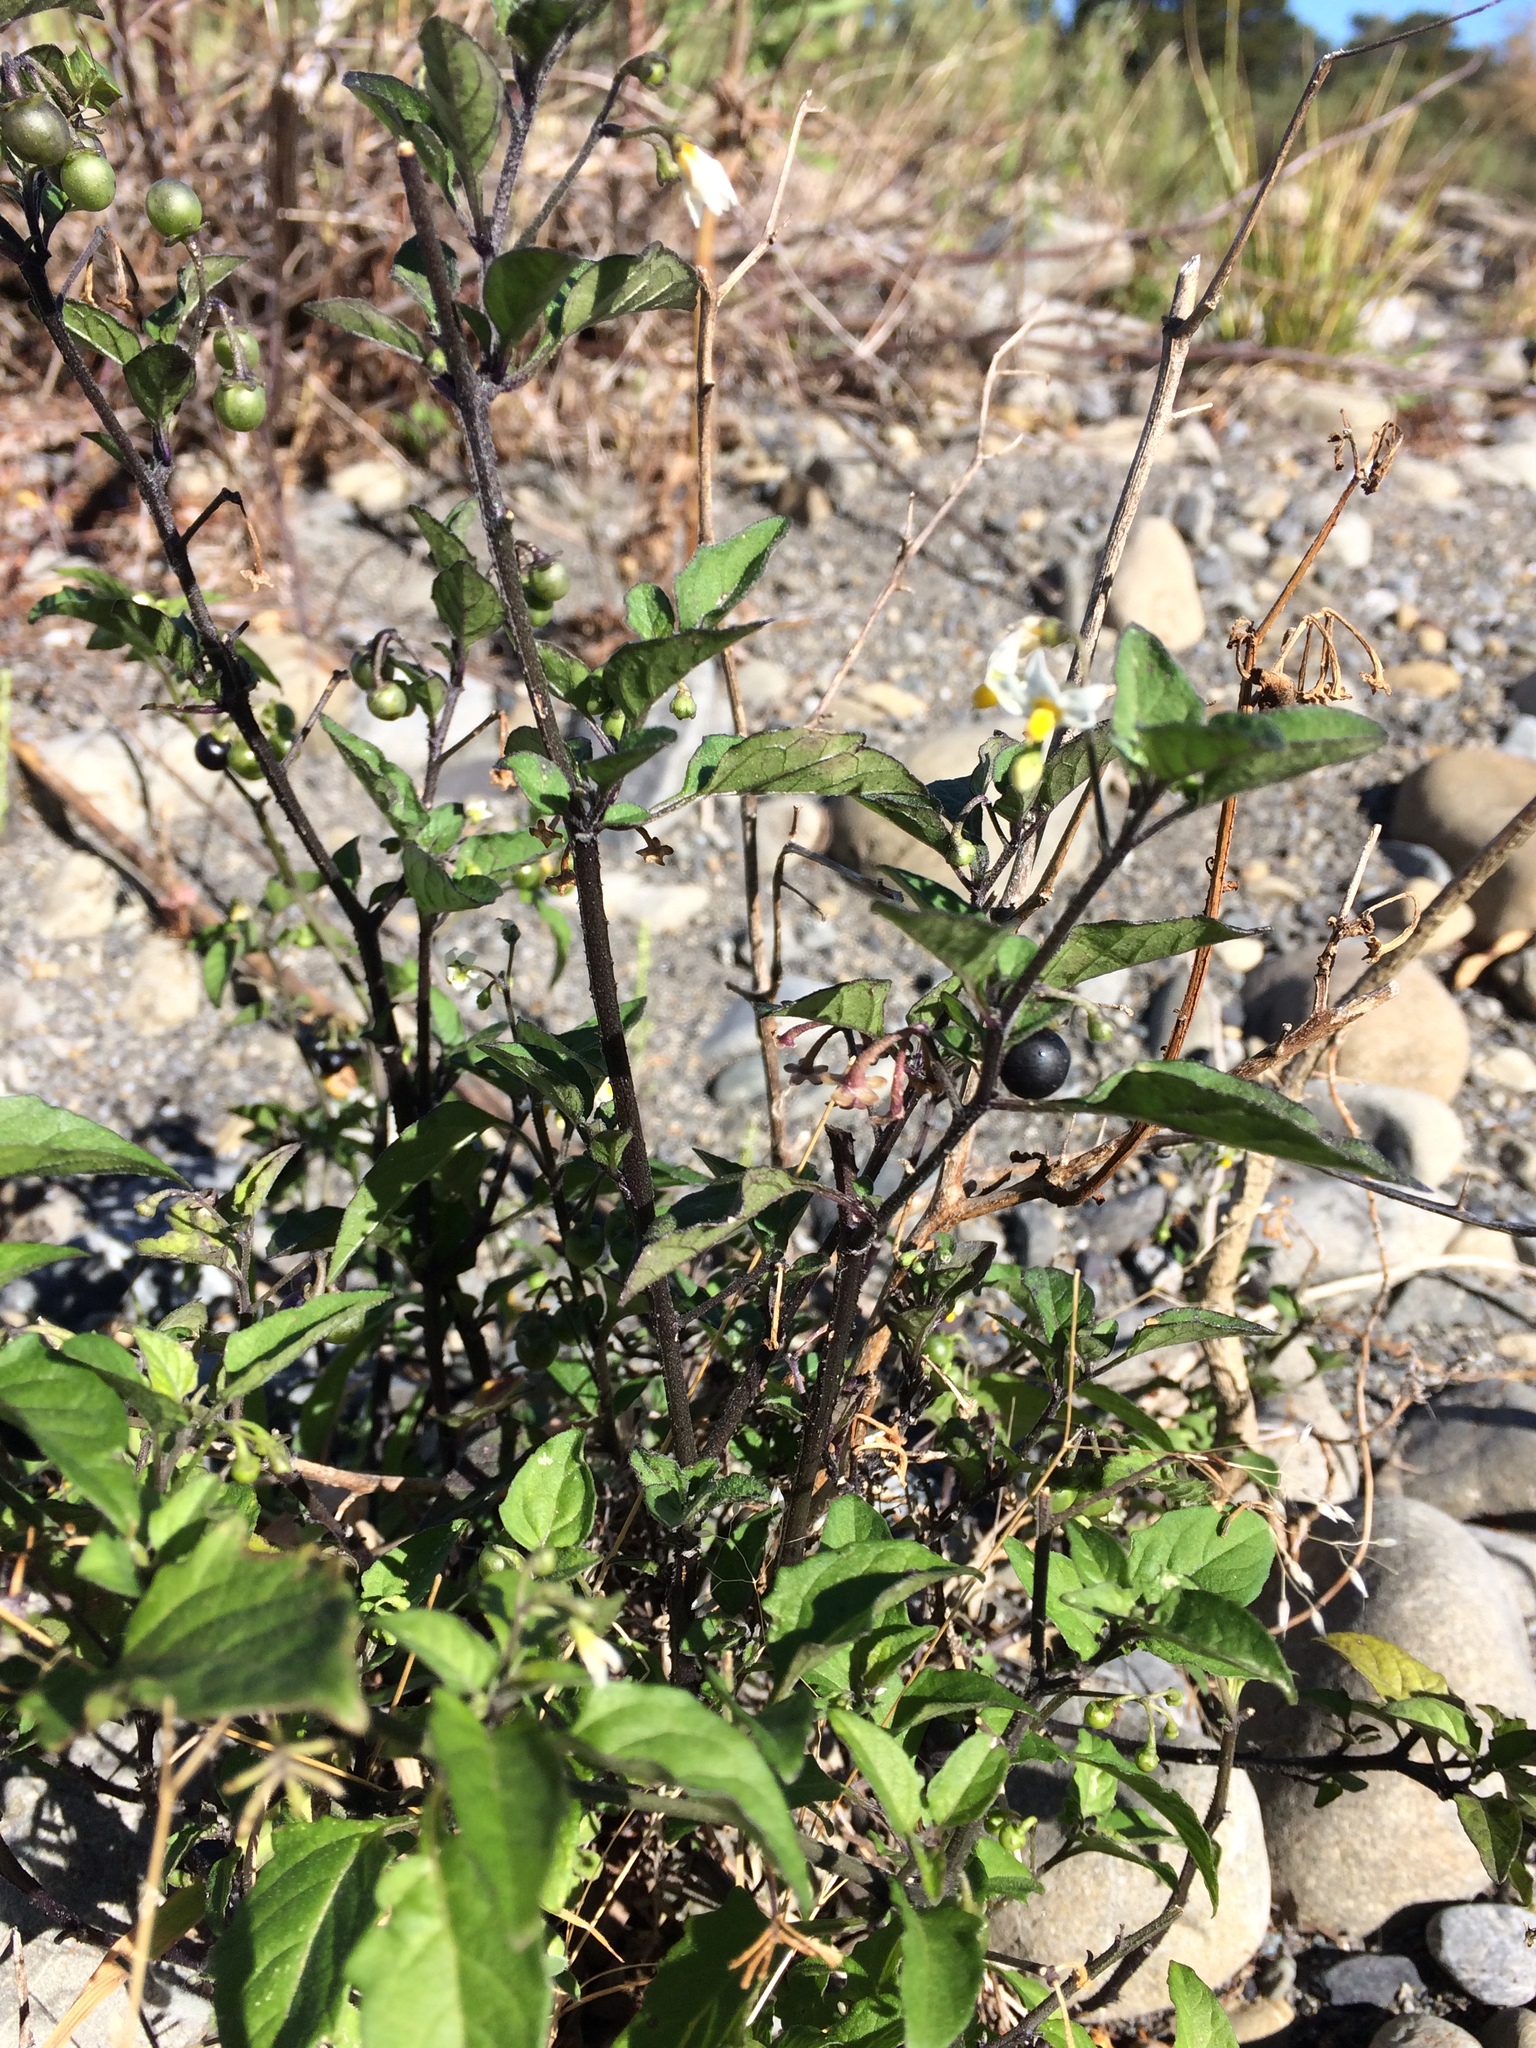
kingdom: Plantae
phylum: Tracheophyta
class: Magnoliopsida
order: Solanales
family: Solanaceae
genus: Solanum
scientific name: Solanum nigrum
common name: Black nightshade
